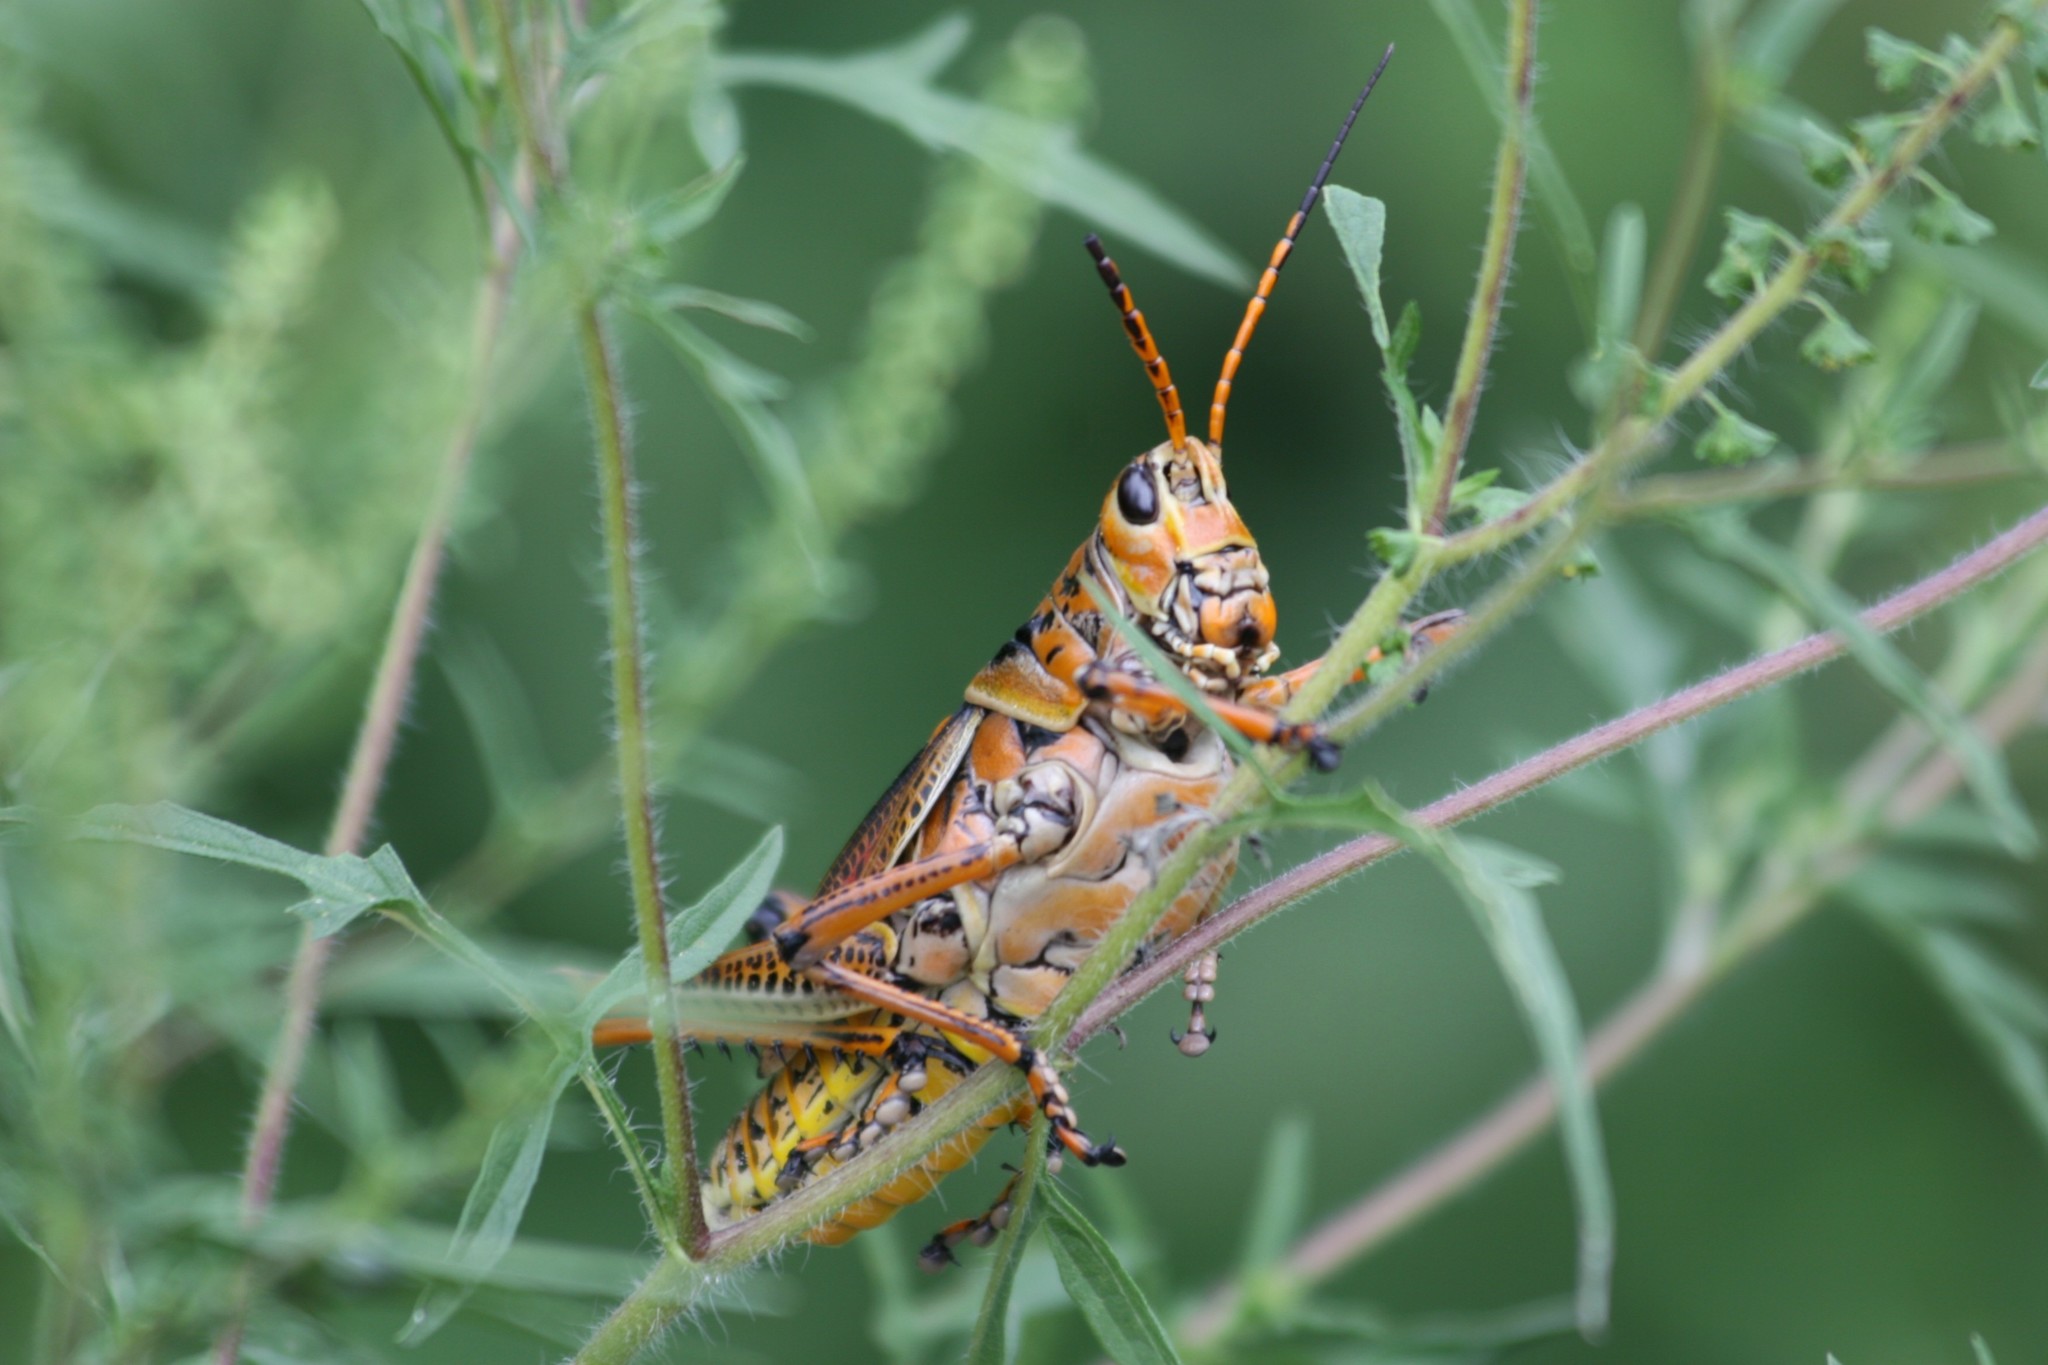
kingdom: Animalia
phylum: Arthropoda
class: Insecta
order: Orthoptera
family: Romaleidae
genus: Romalea
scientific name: Romalea microptera
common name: Eastern lubber grasshopper
